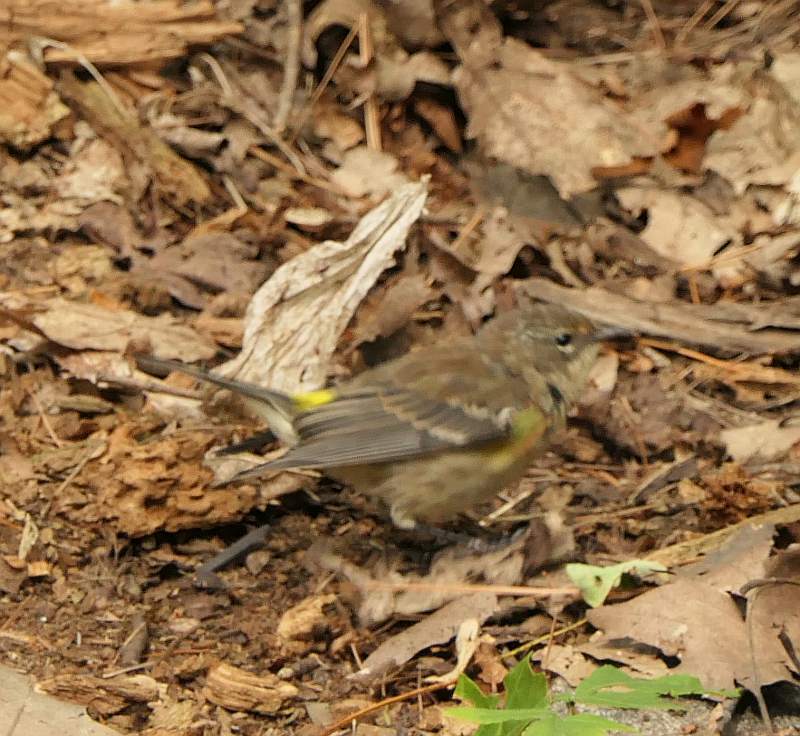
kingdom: Animalia
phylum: Chordata
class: Aves
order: Passeriformes
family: Parulidae
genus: Setophaga
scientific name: Setophaga coronata
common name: Myrtle warbler
